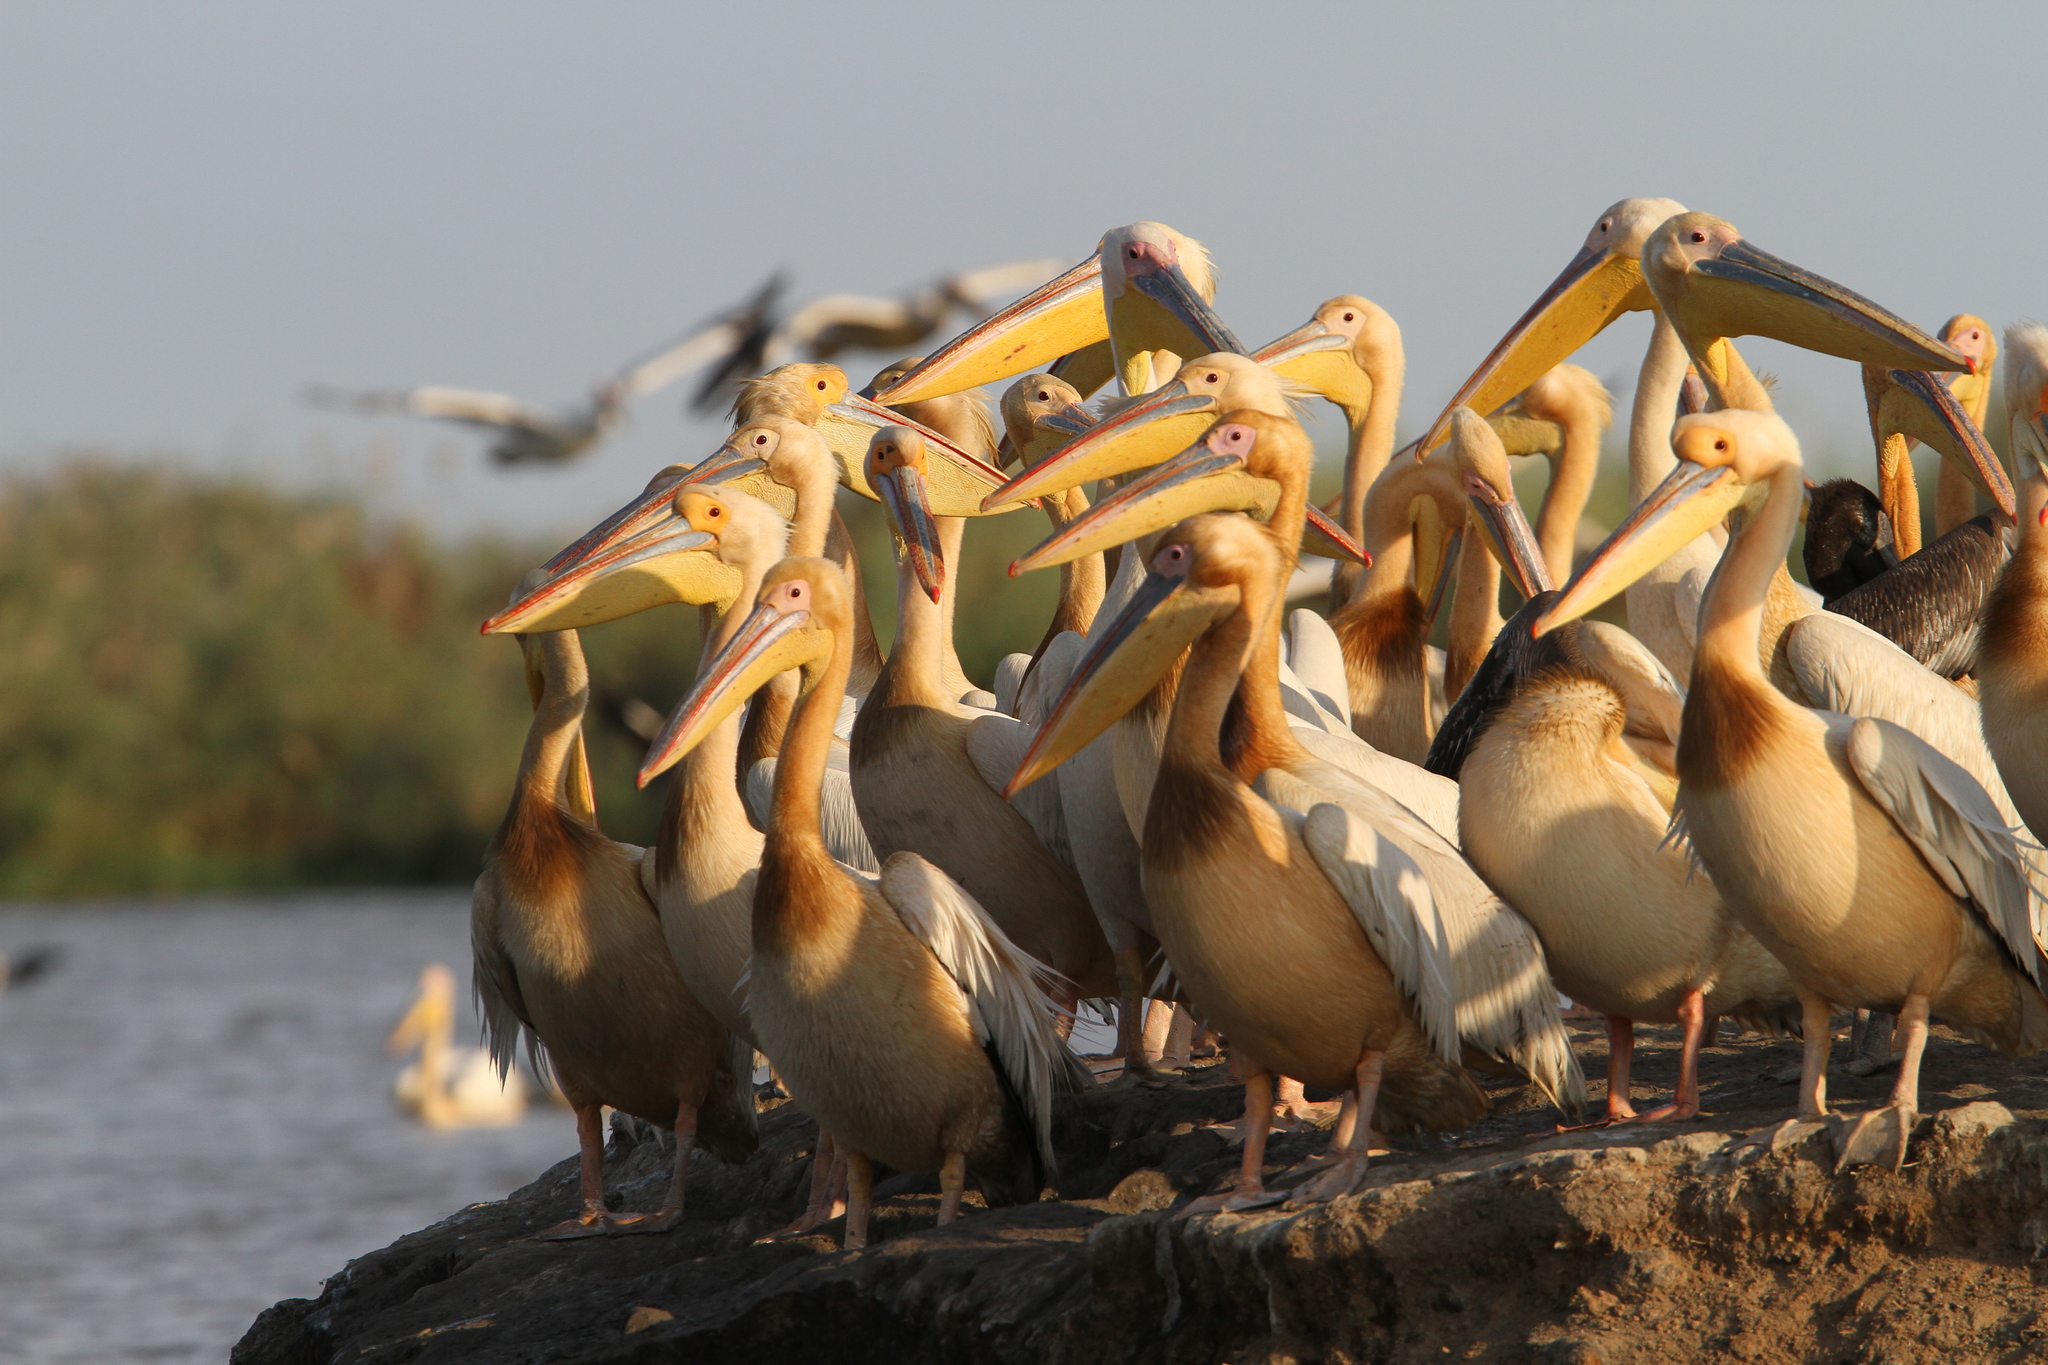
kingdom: Animalia
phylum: Chordata
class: Aves
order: Pelecaniformes
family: Pelecanidae
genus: Pelecanus
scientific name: Pelecanus onocrotalus
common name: Great white pelican
